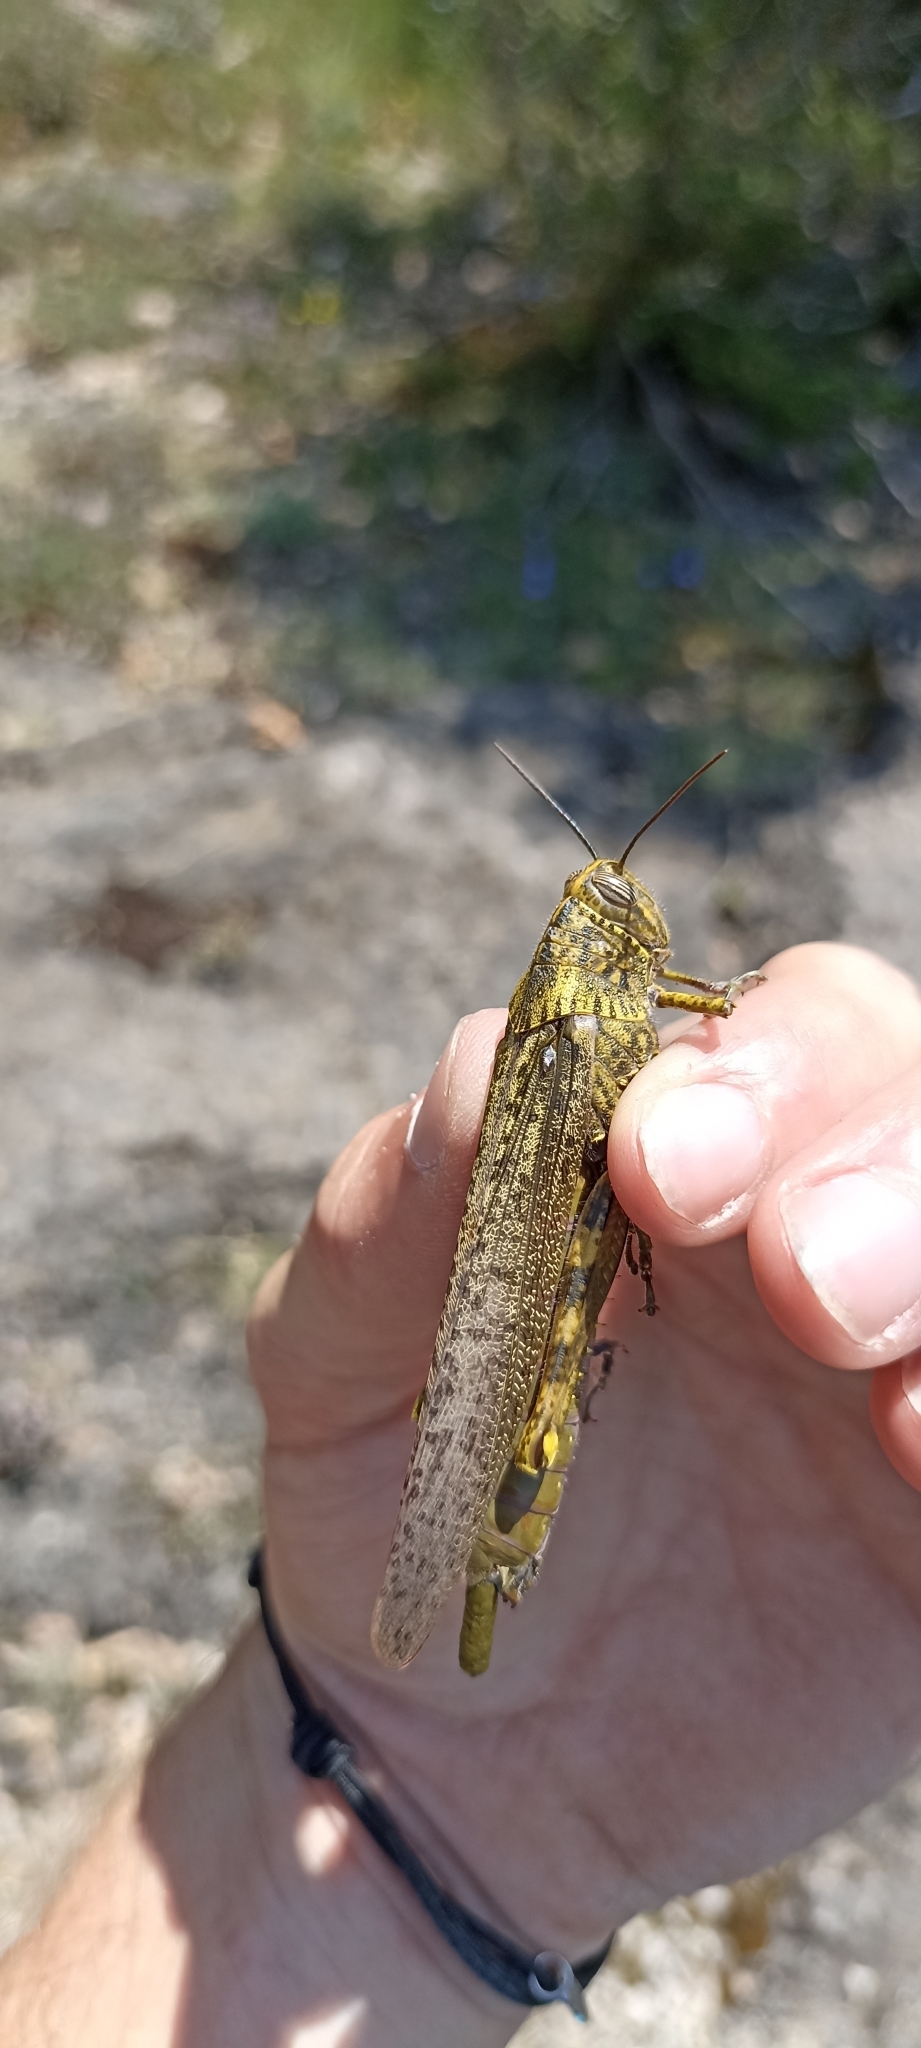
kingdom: Animalia
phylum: Arthropoda
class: Insecta
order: Orthoptera
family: Acrididae
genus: Anacridium
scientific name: Anacridium aegyptium
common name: Egyptian grasshopper
